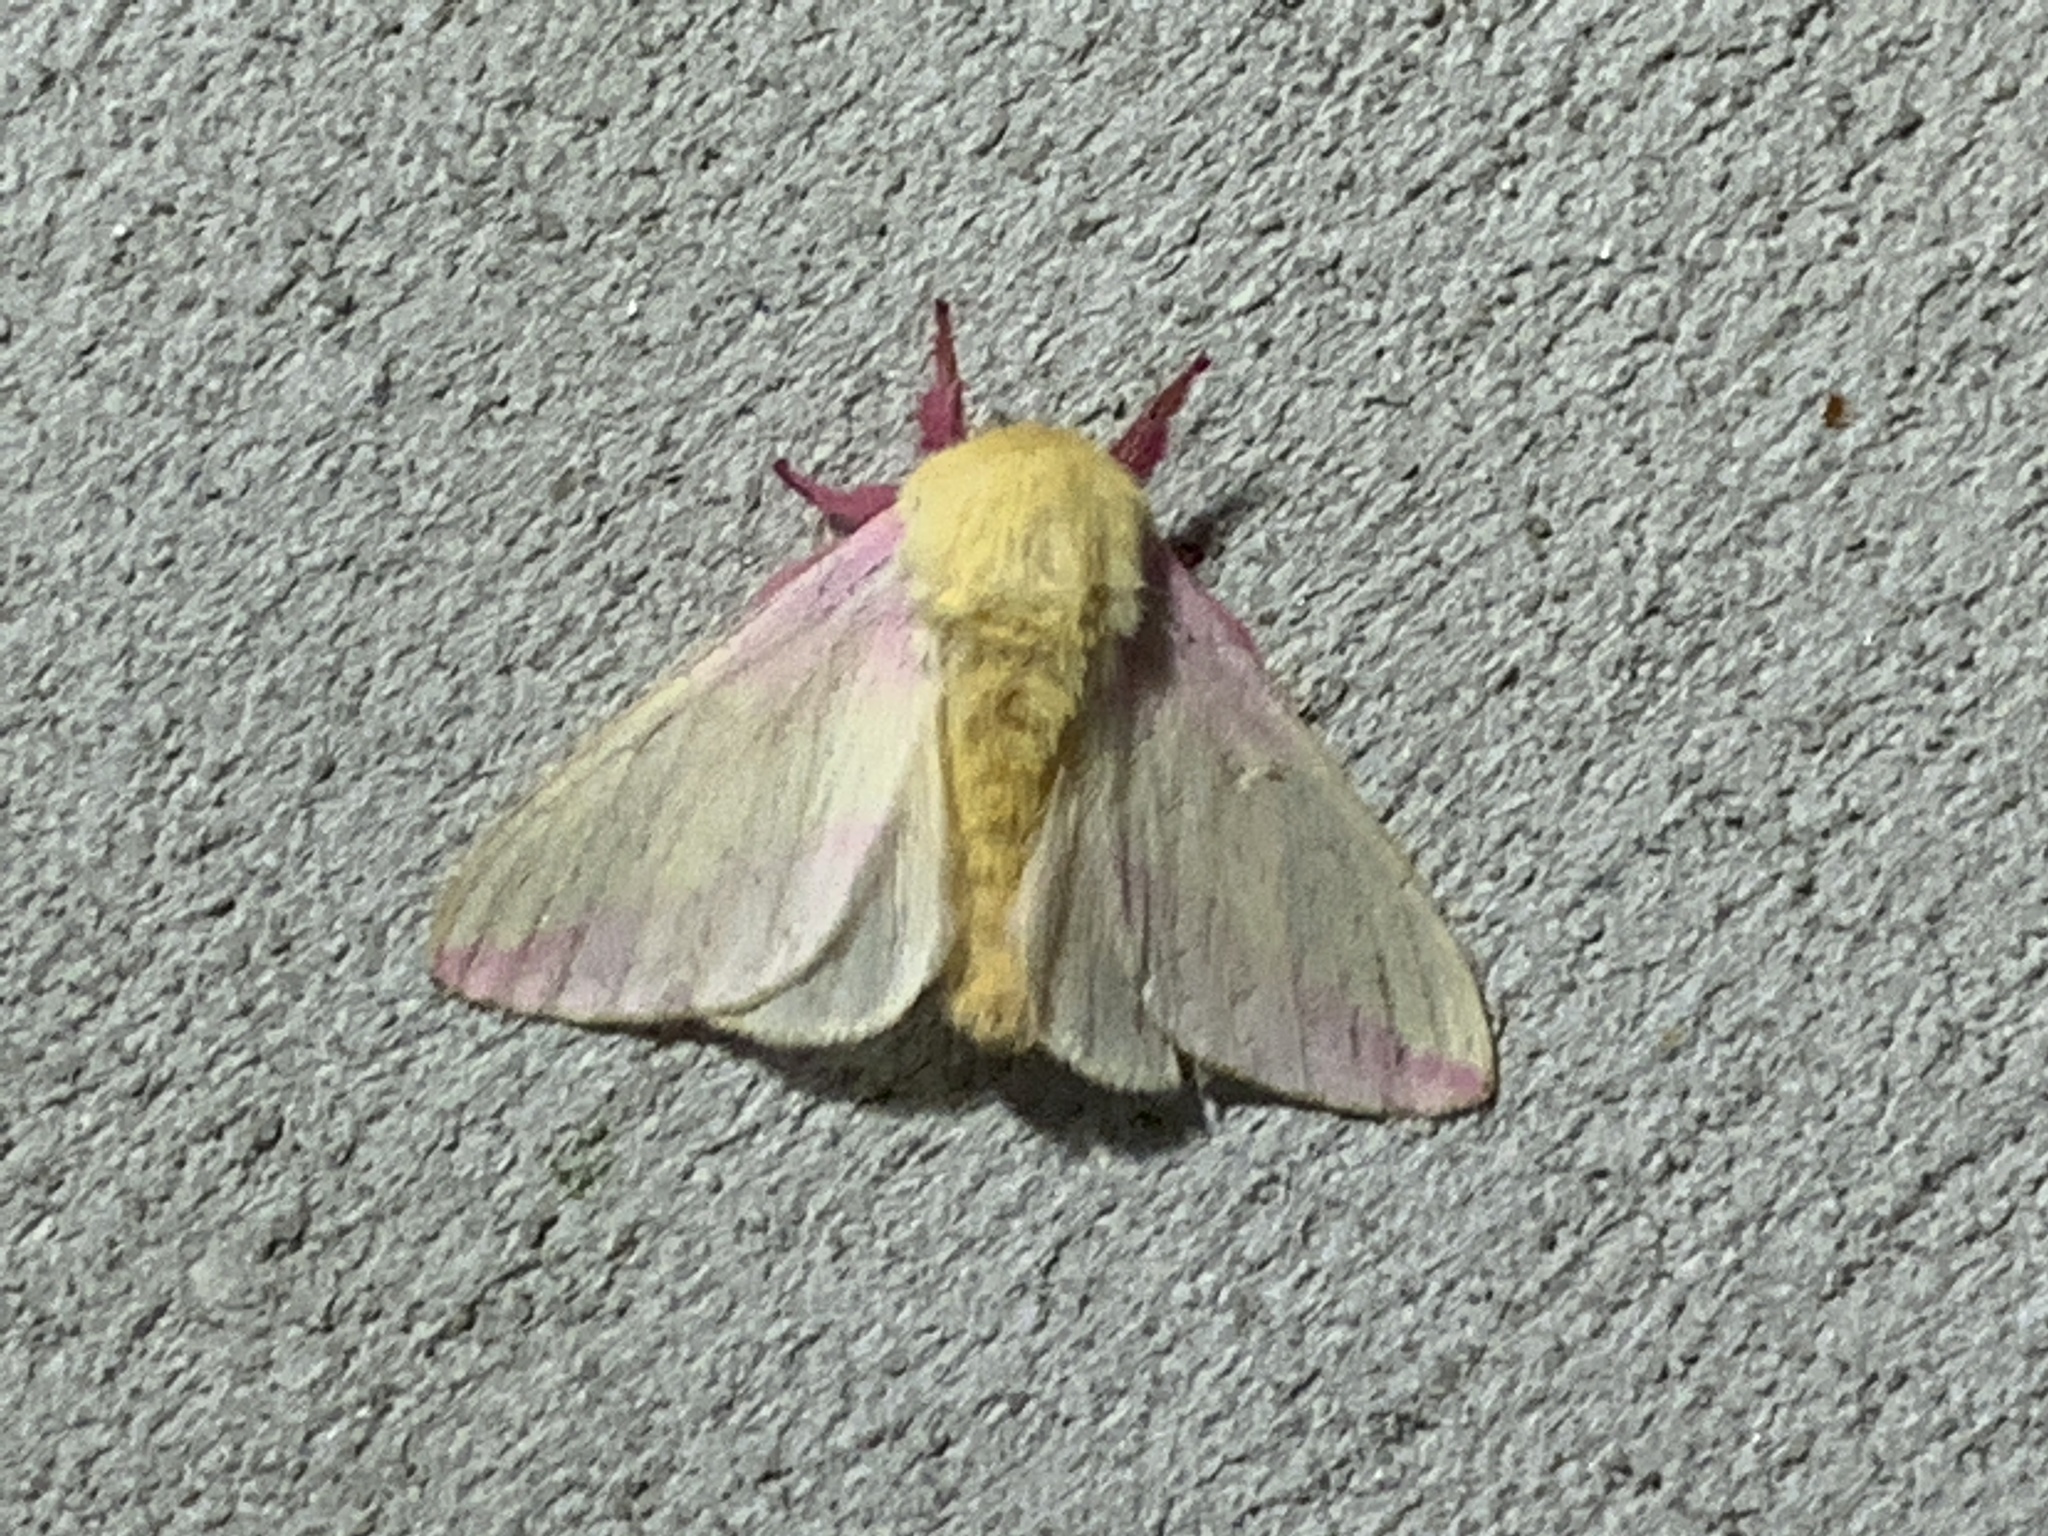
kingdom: Animalia
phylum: Arthropoda
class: Insecta
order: Lepidoptera
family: Saturniidae
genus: Dryocampa
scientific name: Dryocampa rubicunda
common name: Rosy maple moth
